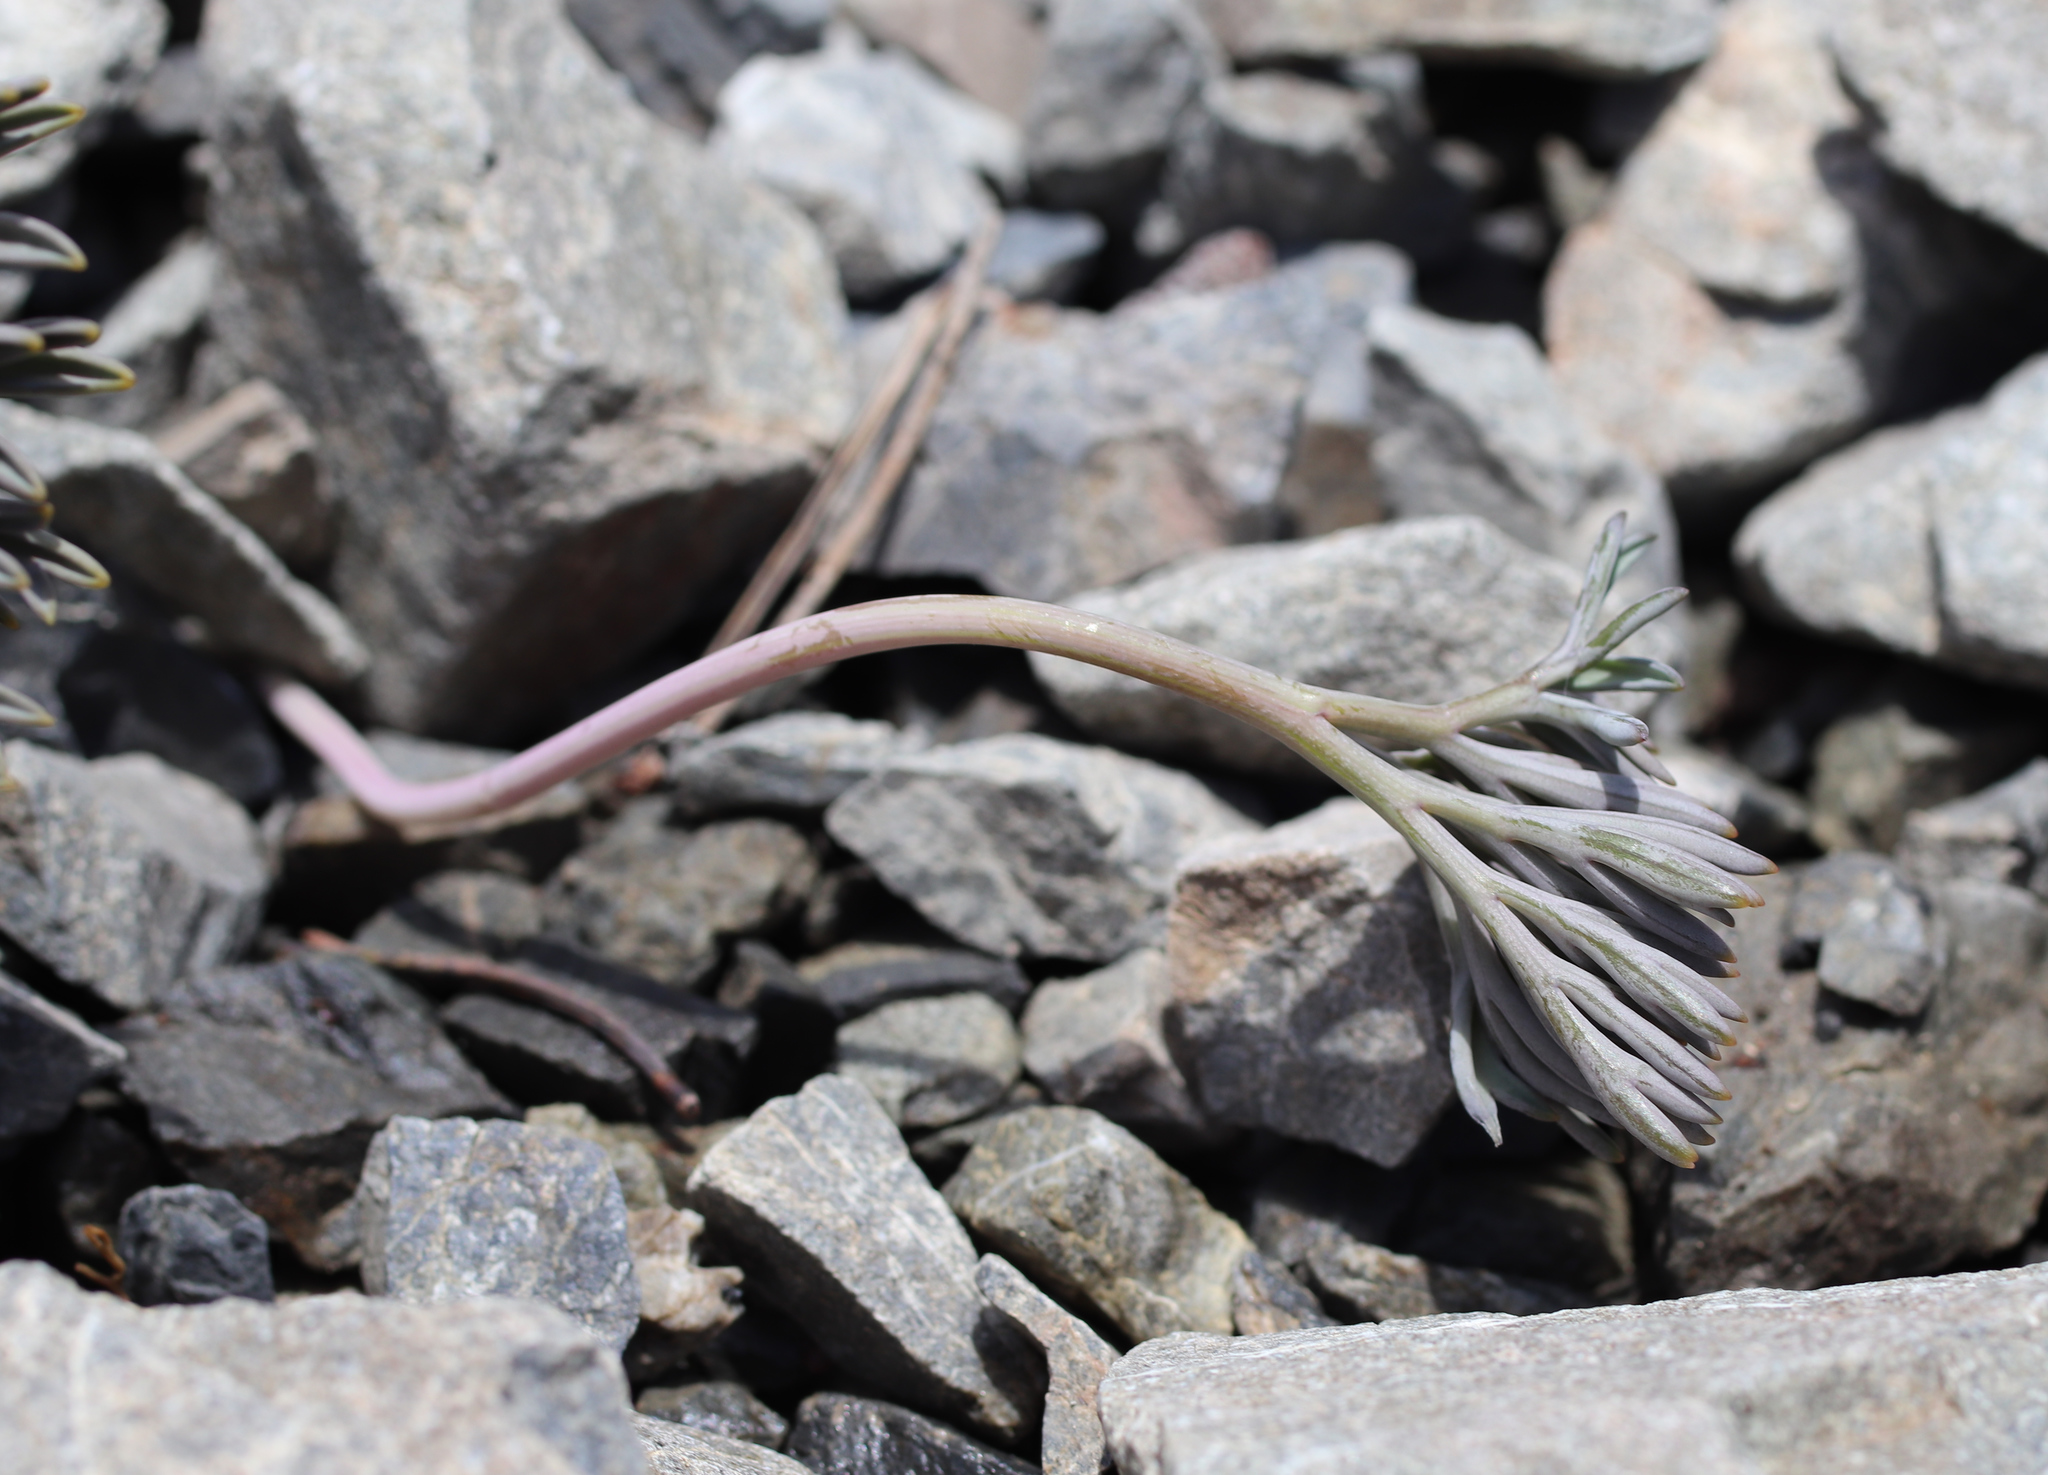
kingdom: Plantae
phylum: Tracheophyta
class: Magnoliopsida
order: Apiales
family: Apiaceae
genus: Lignocarpa
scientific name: Lignocarpa carnosula
